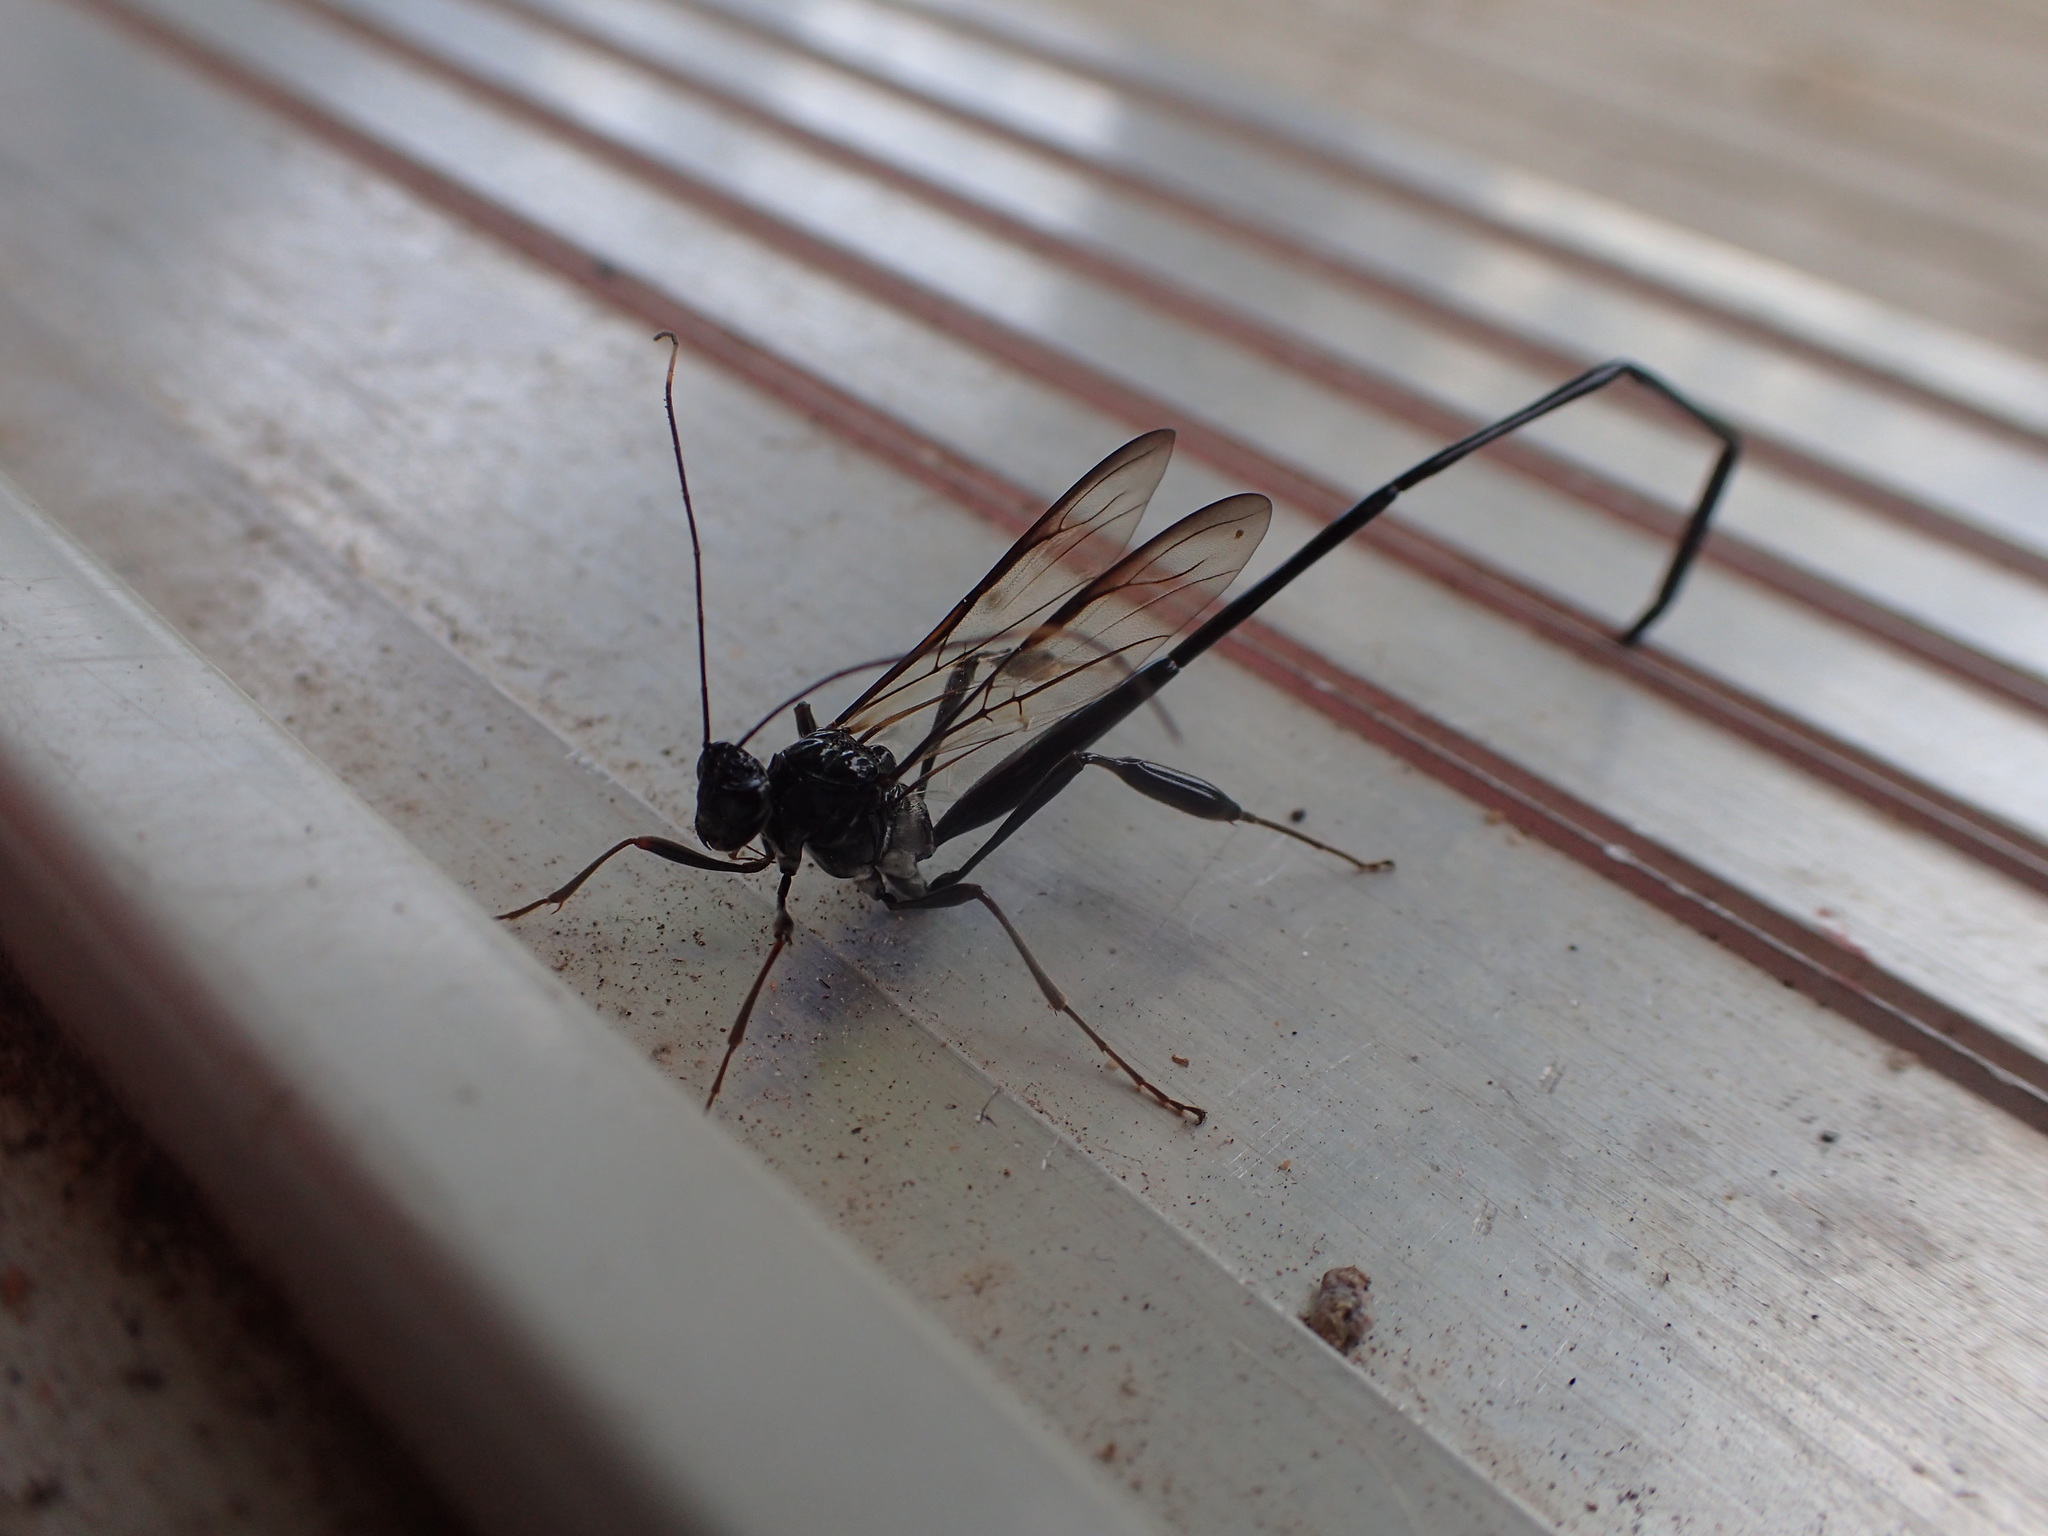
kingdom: Animalia
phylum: Arthropoda
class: Insecta
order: Hymenoptera
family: Pelecinidae
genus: Pelecinus
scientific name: Pelecinus polyturator
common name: American pelecinid wasp
